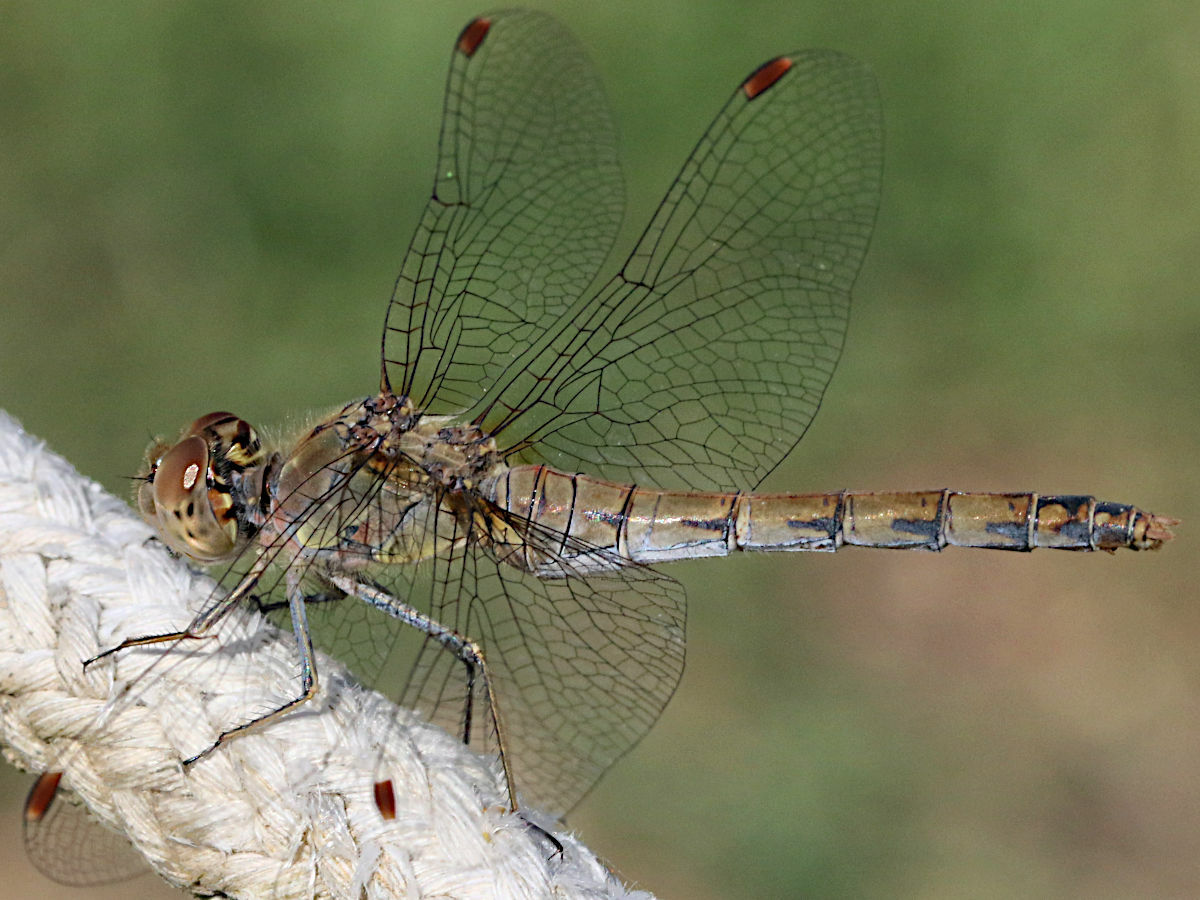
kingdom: Animalia
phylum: Arthropoda
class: Insecta
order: Odonata
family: Libellulidae
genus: Sympetrum
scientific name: Sympetrum striolatum
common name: Common darter
